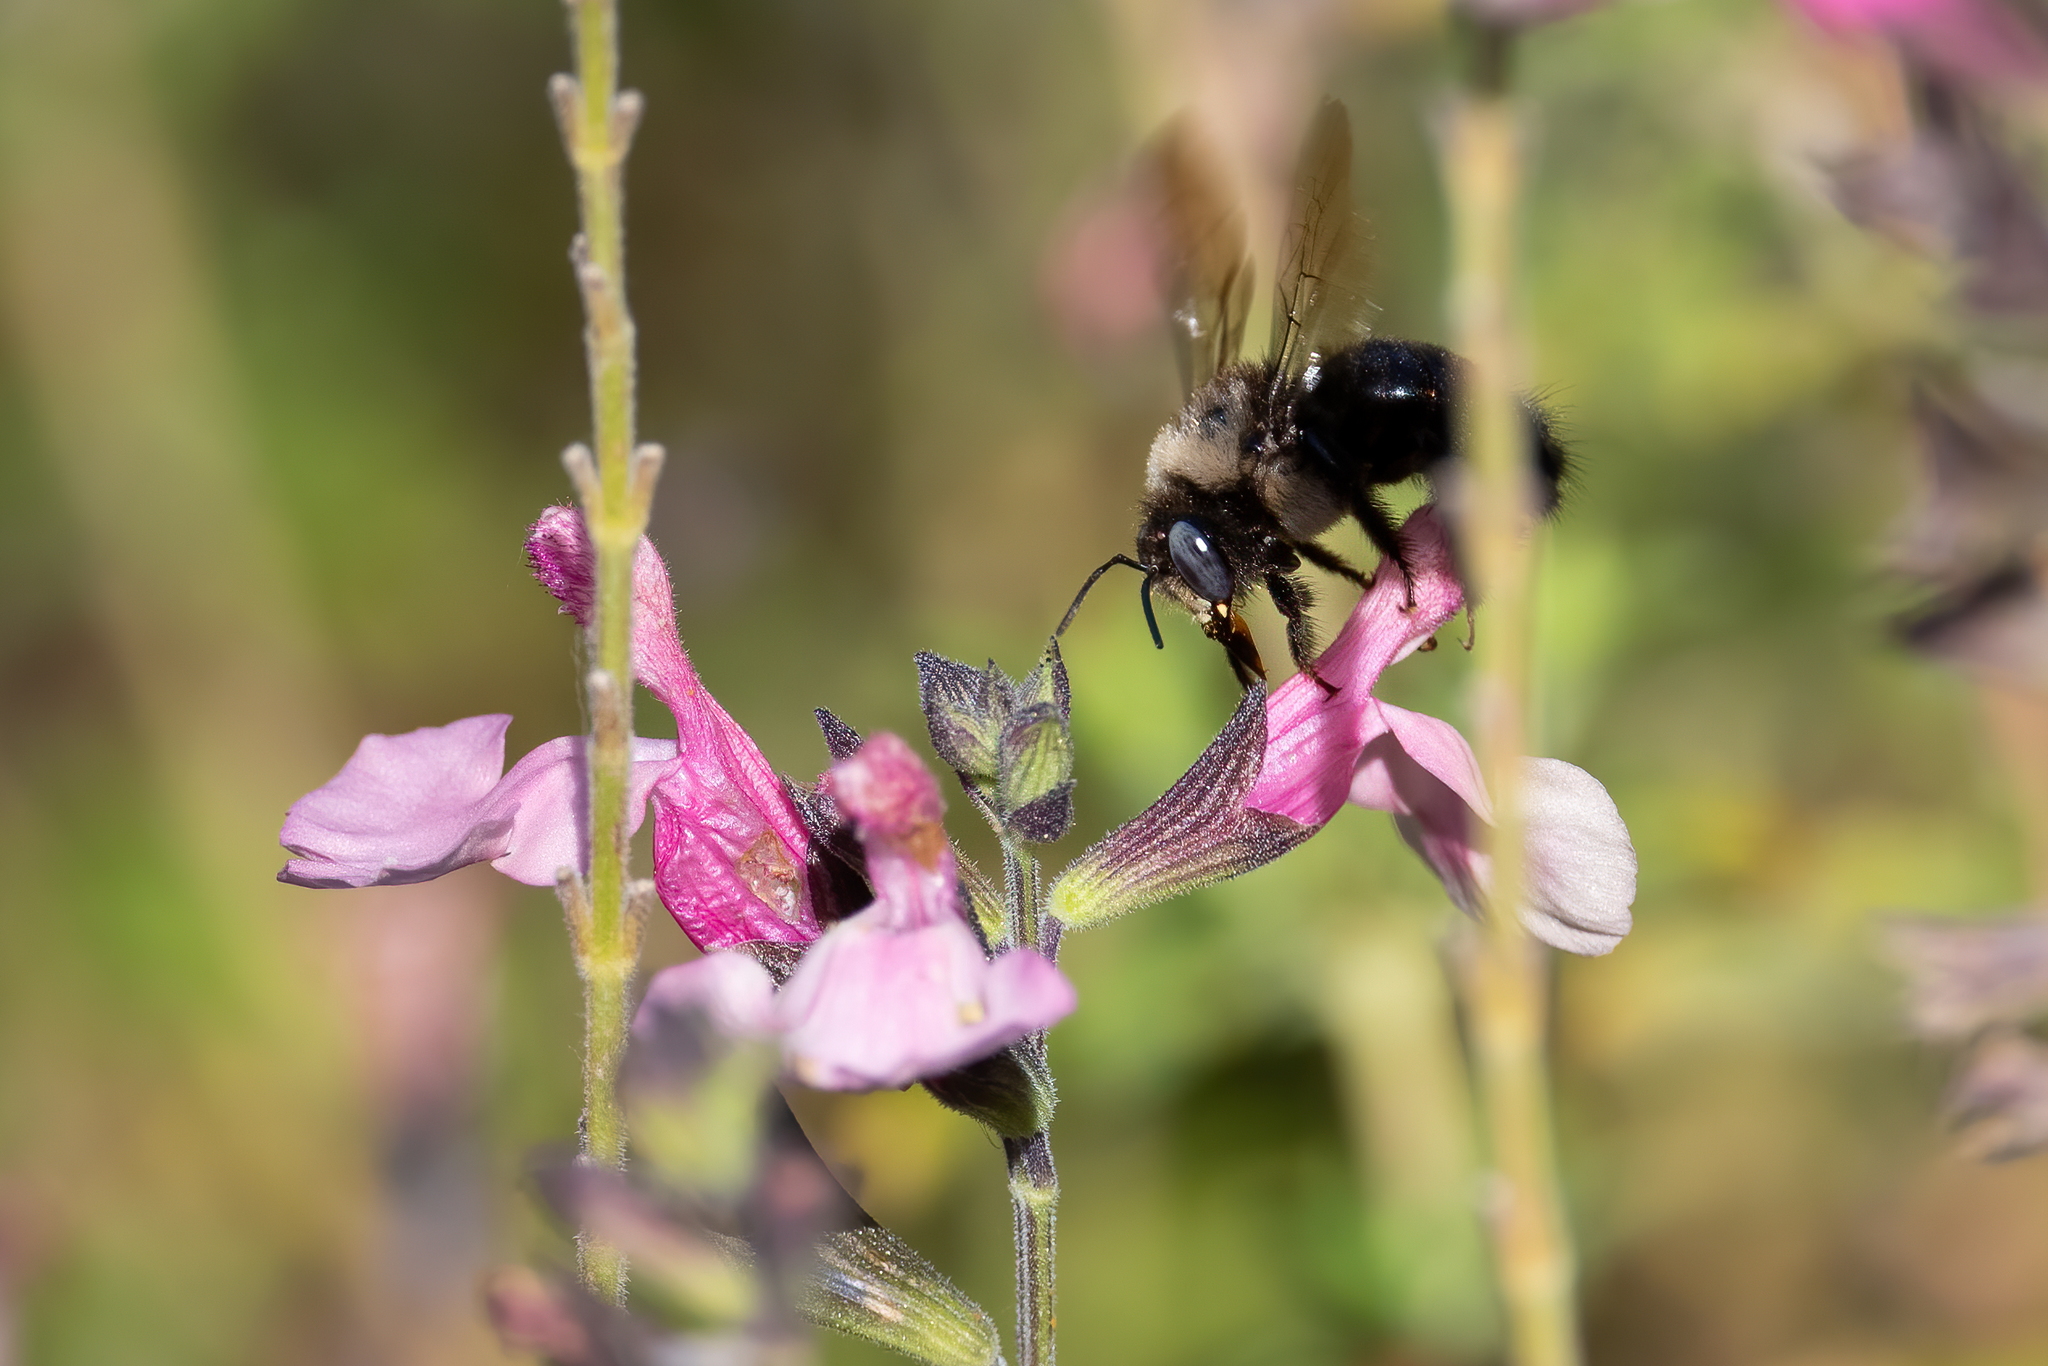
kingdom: Animalia
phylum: Arthropoda
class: Insecta
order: Hymenoptera
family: Apidae
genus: Xylocopa
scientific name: Xylocopa tabaniformis
